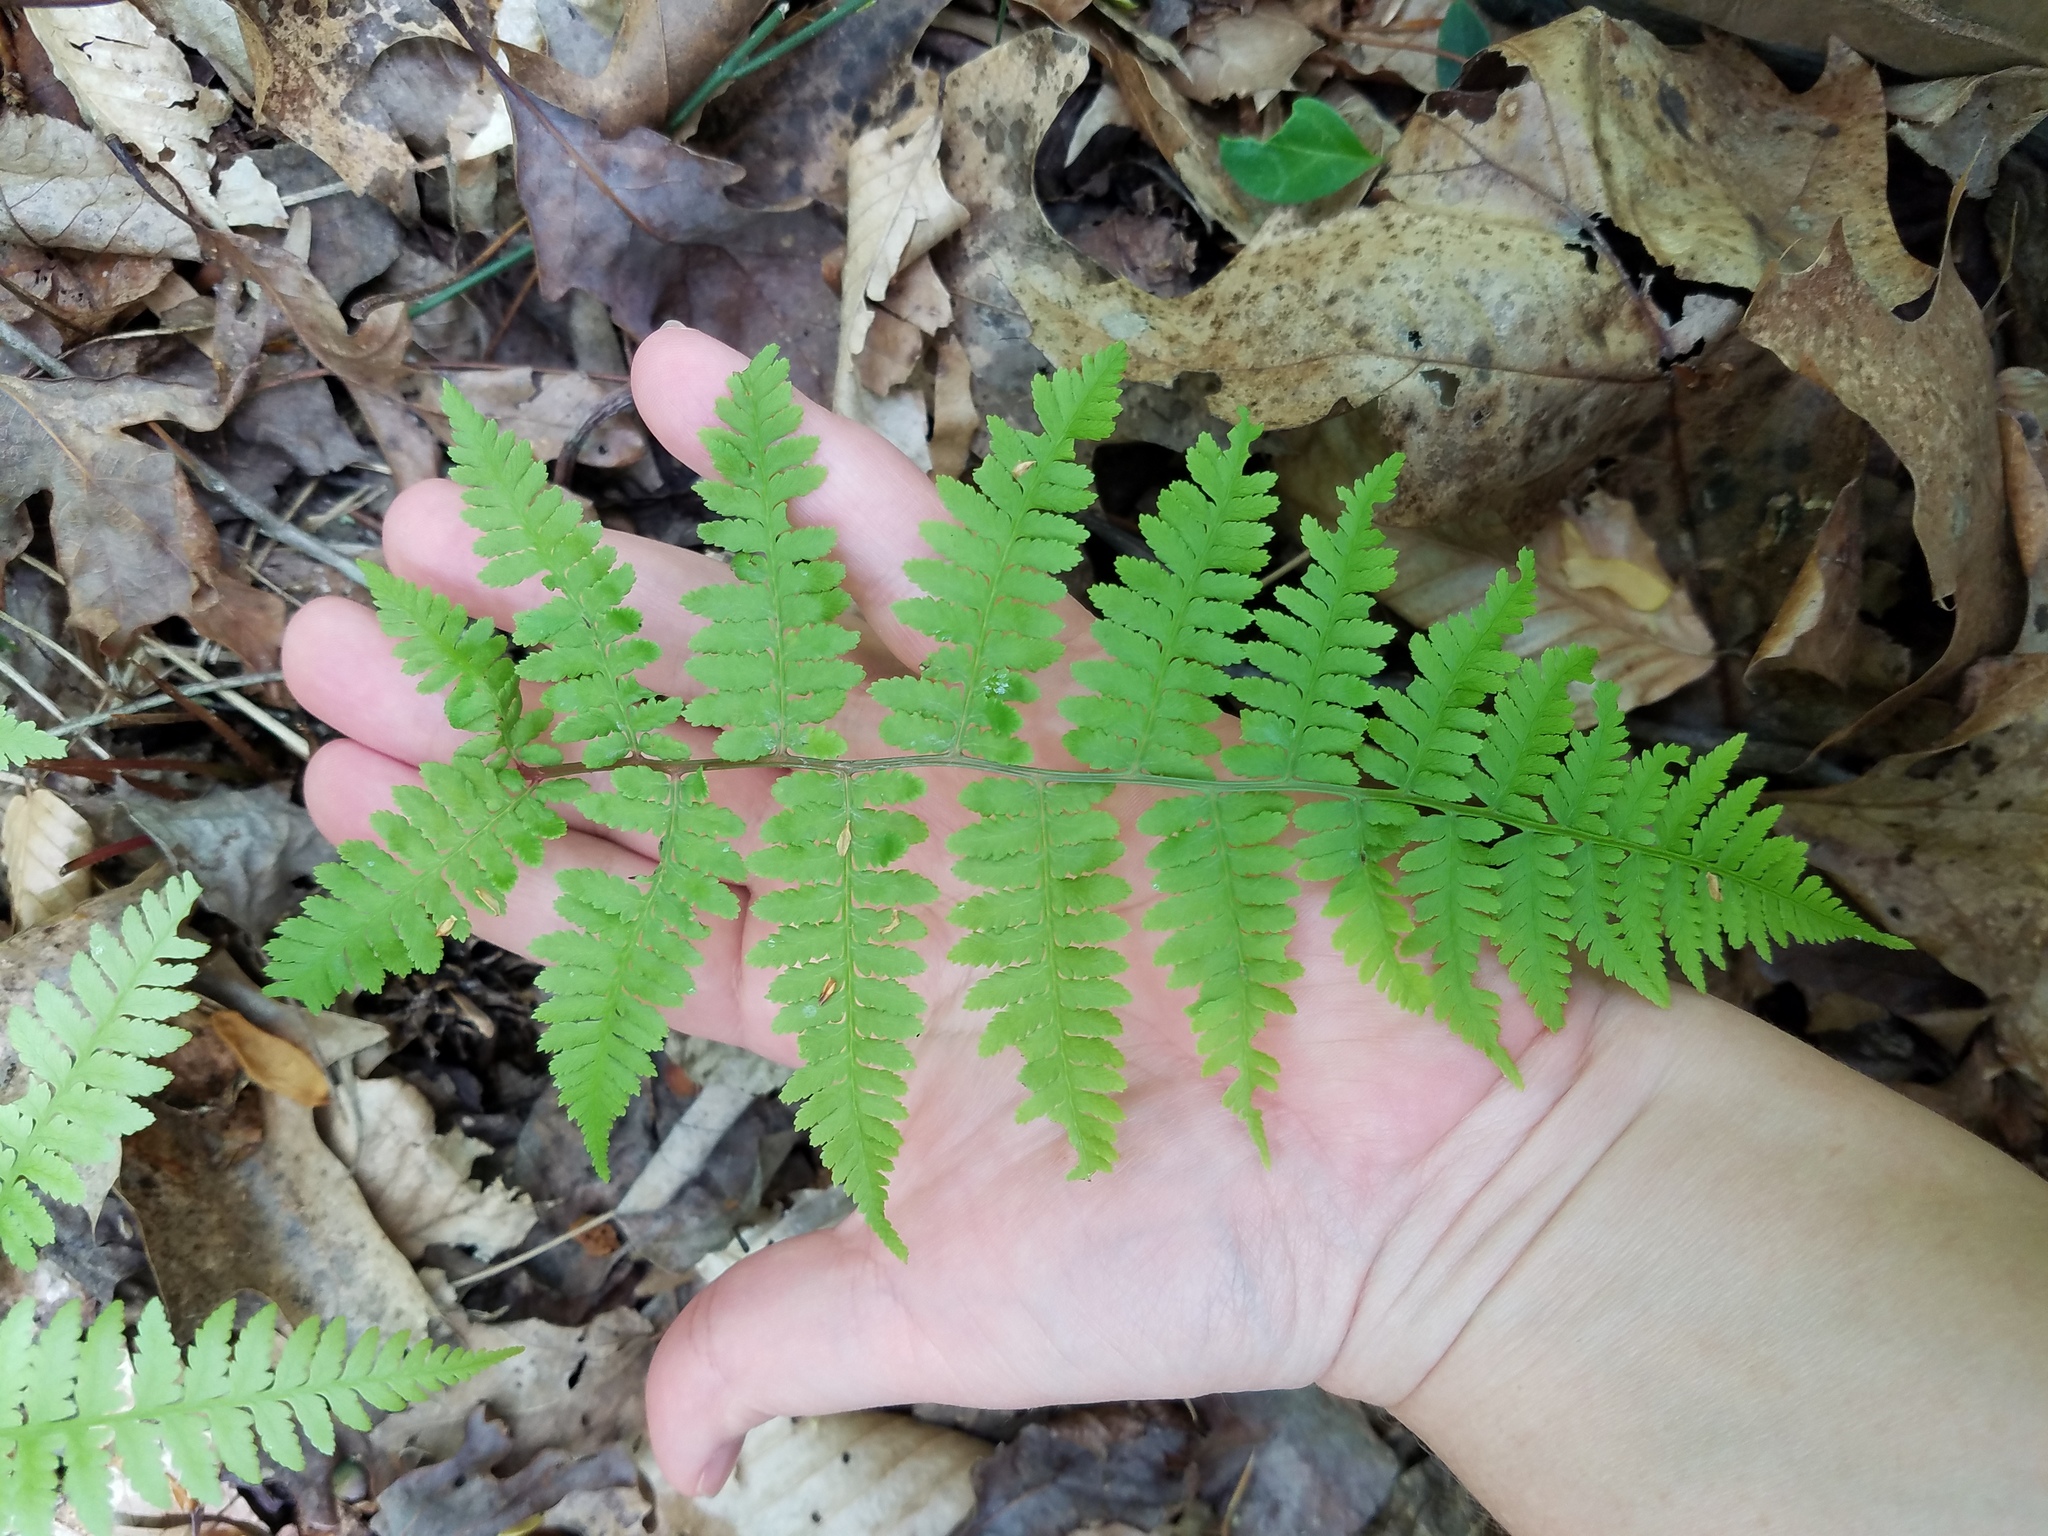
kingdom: Plantae
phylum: Tracheophyta
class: Polypodiopsida
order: Polypodiales
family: Athyriaceae
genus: Athyrium
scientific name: Athyrium asplenioides
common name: Southern lady fern
